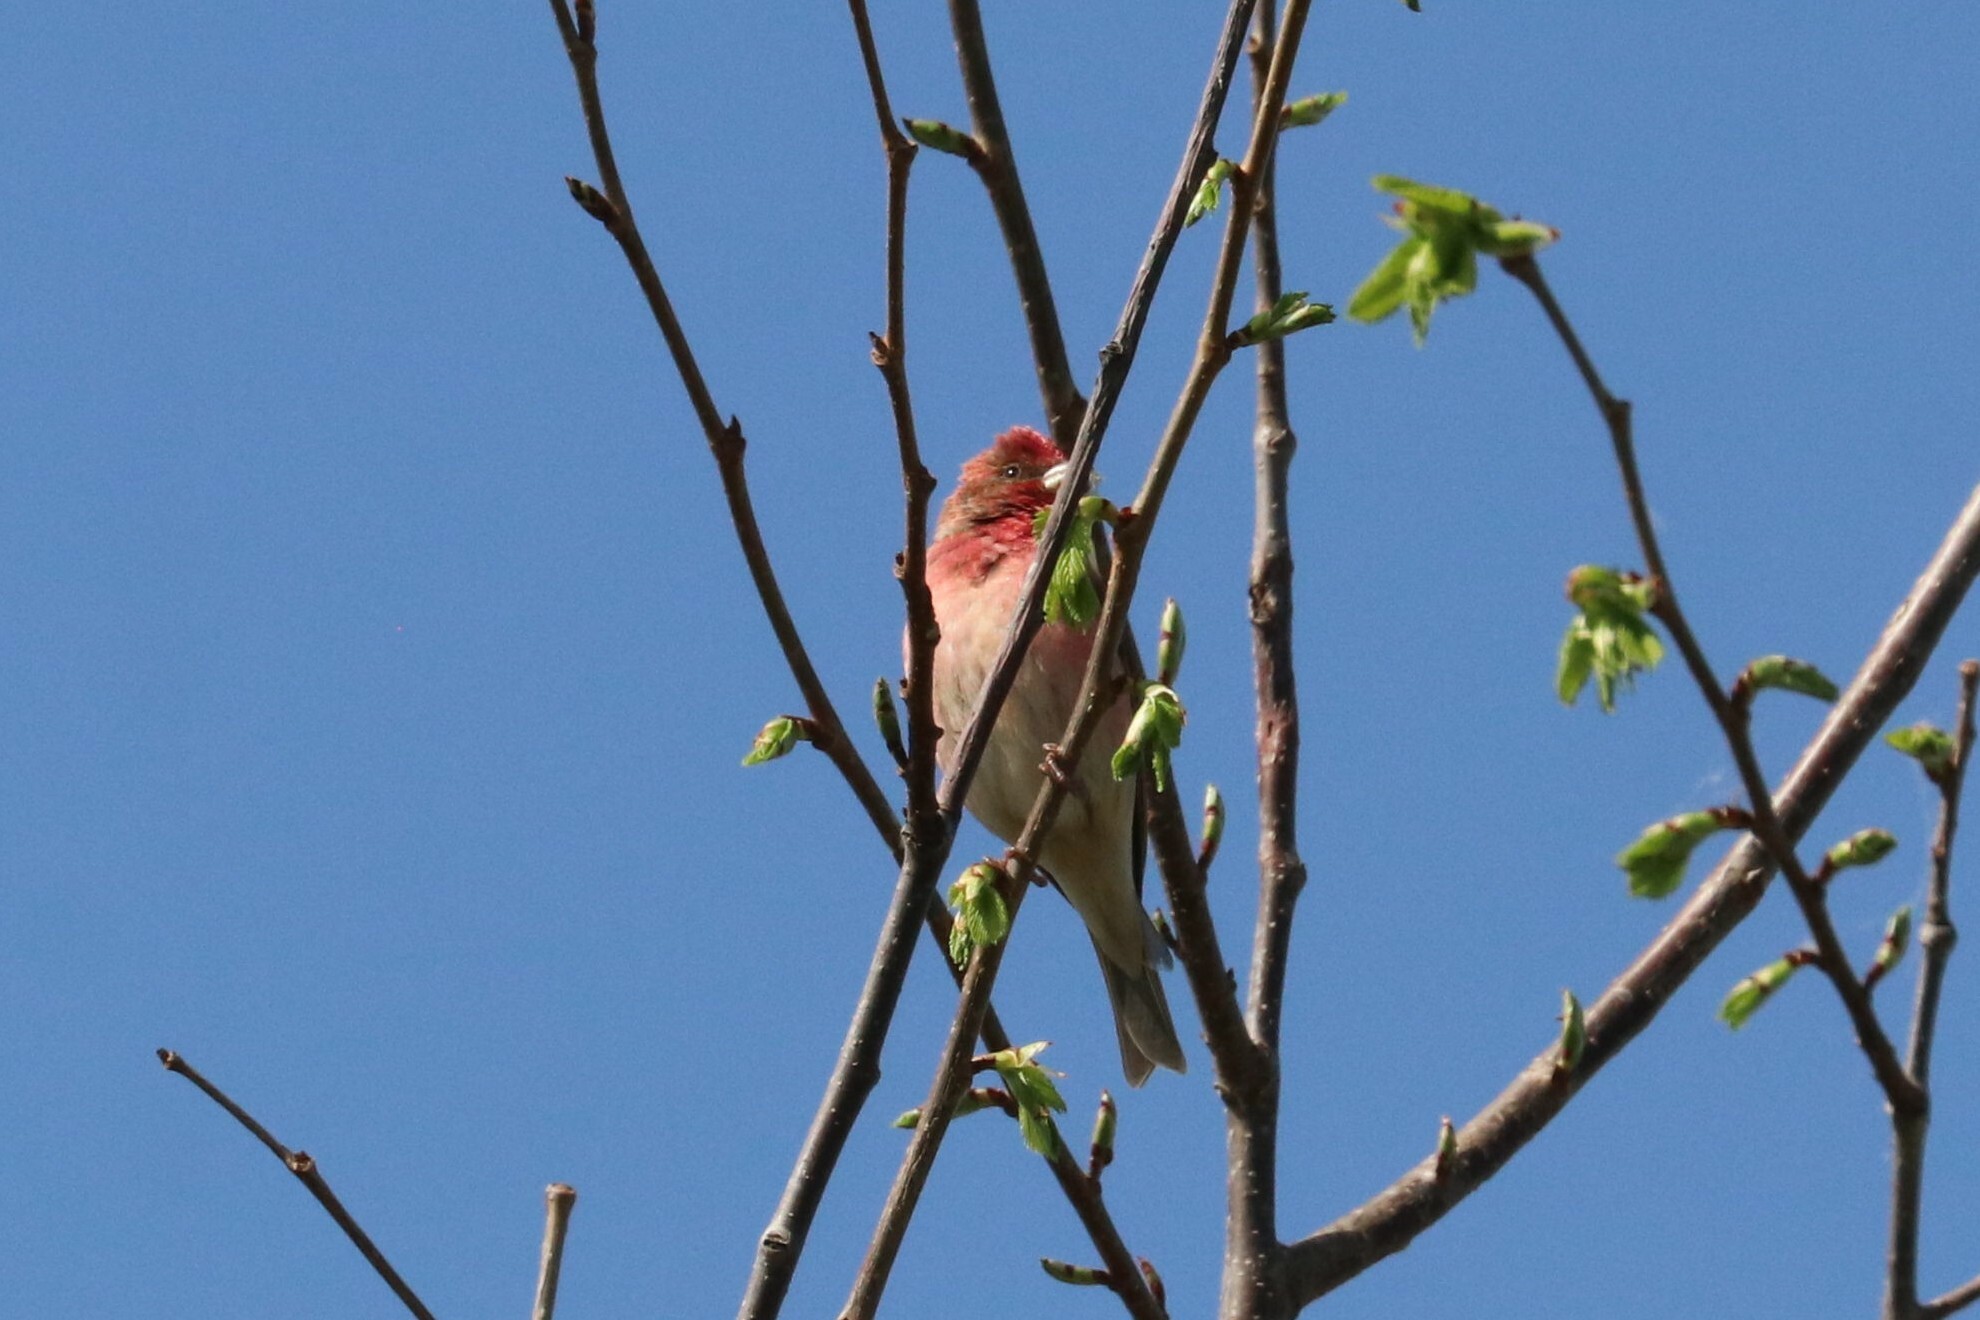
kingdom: Animalia
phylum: Chordata
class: Aves
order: Passeriformes
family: Fringillidae
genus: Carpodacus
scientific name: Carpodacus erythrinus
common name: Common rosefinch
